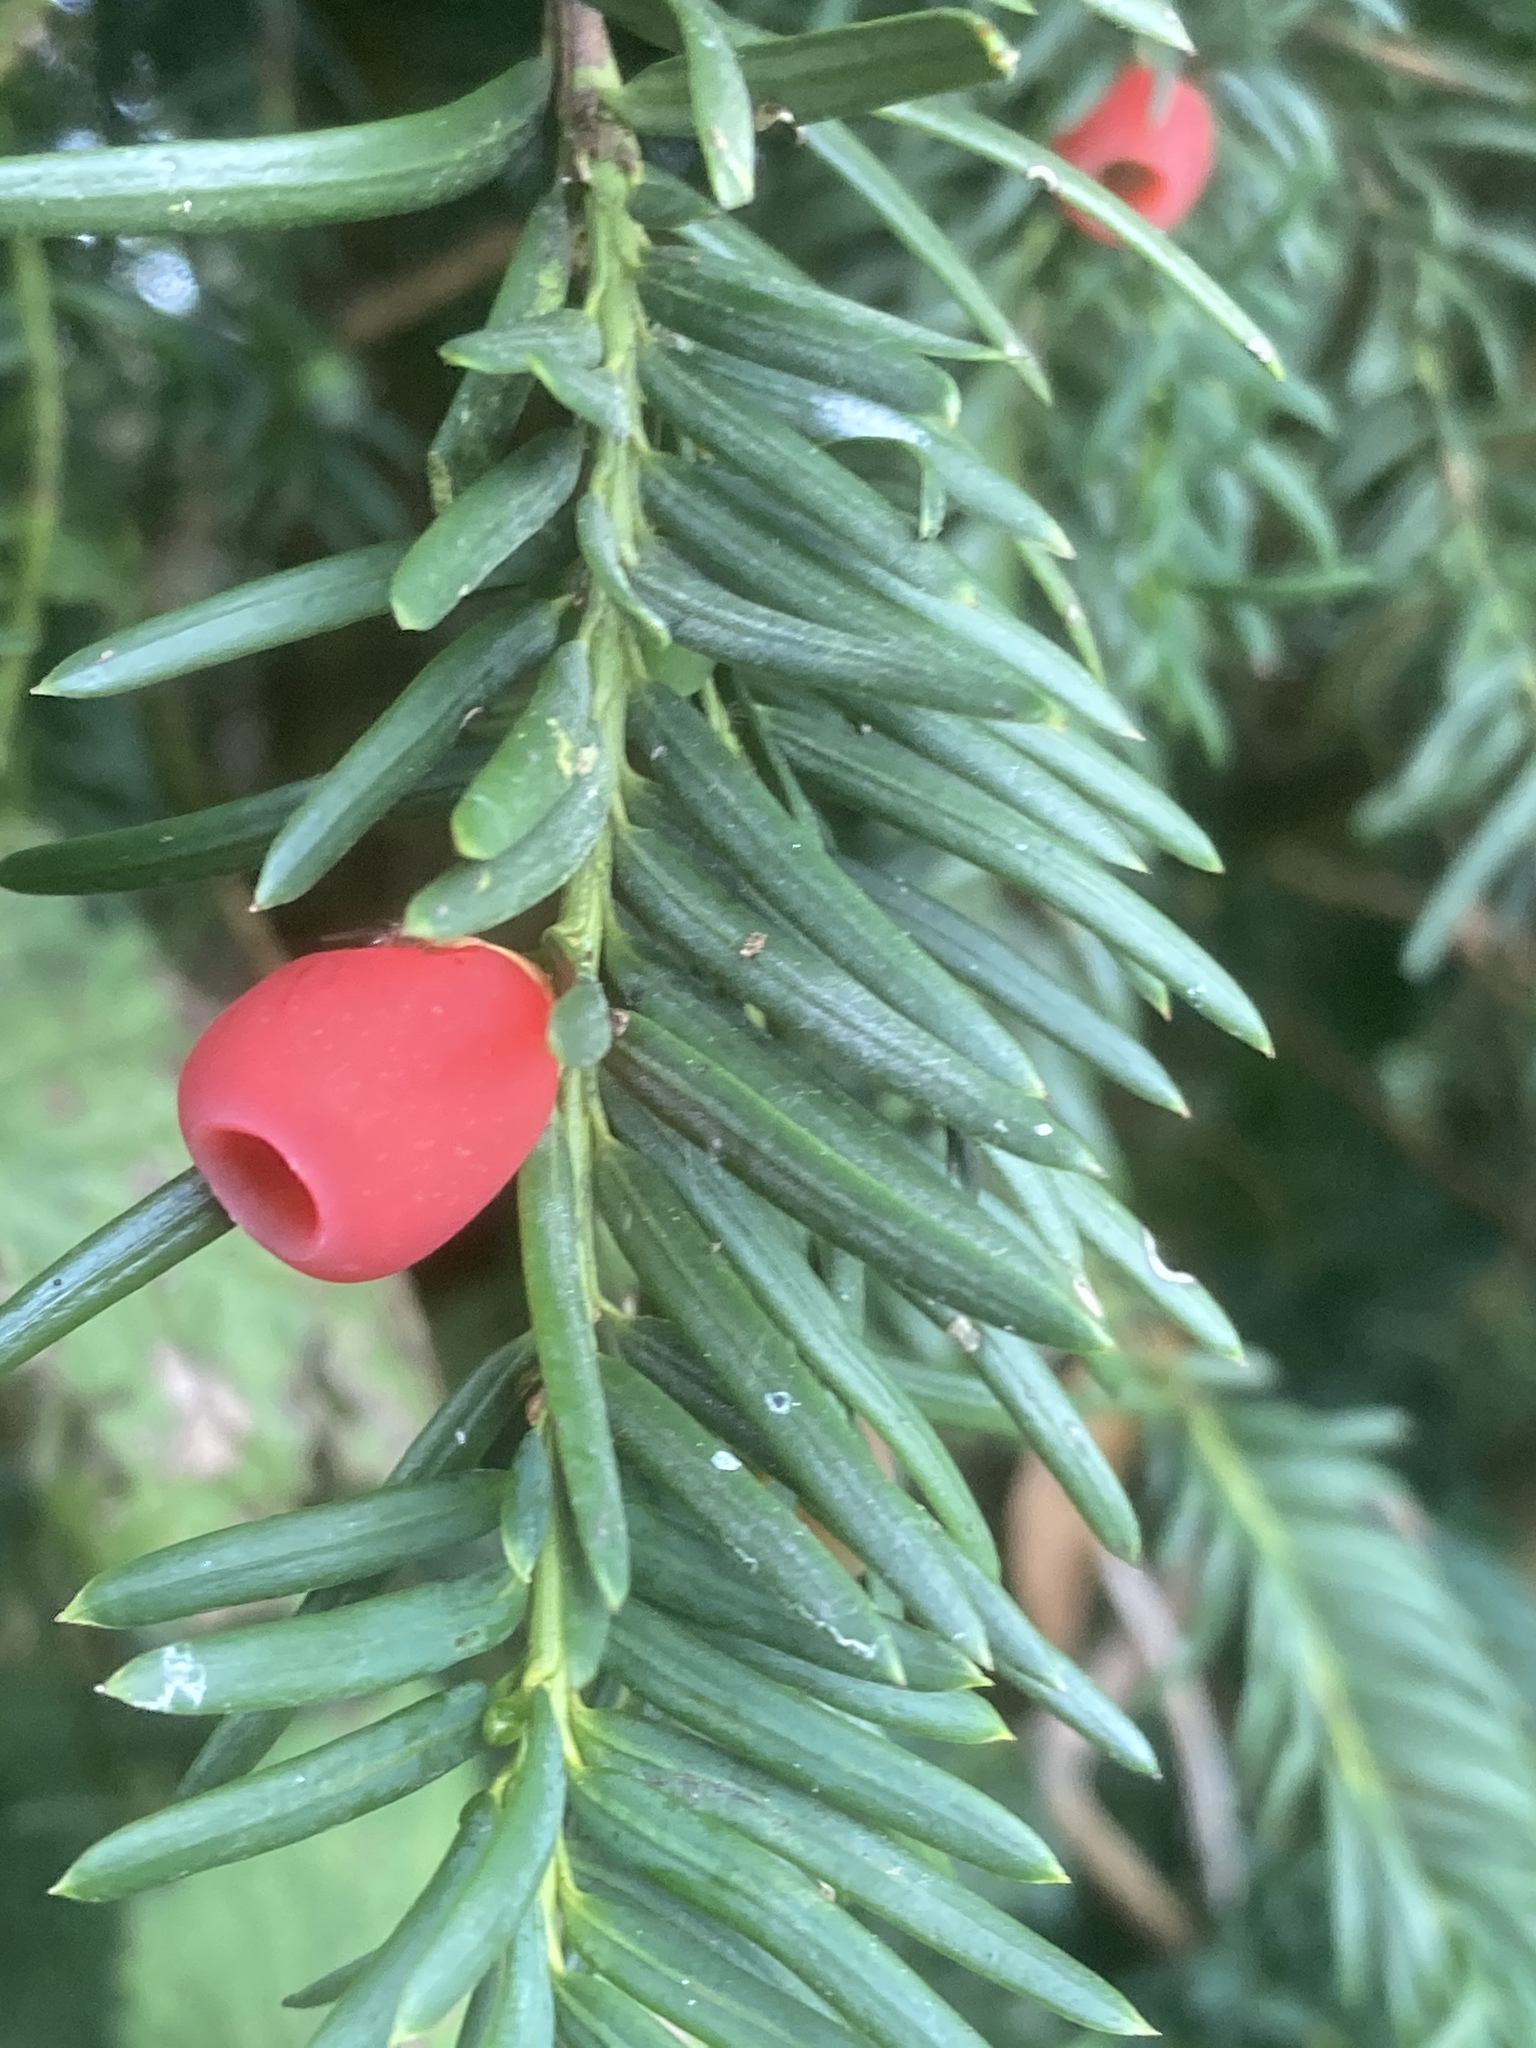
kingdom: Plantae
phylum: Tracheophyta
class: Pinopsida
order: Pinales
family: Taxaceae
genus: Taxus
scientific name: Taxus baccata
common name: Yew
